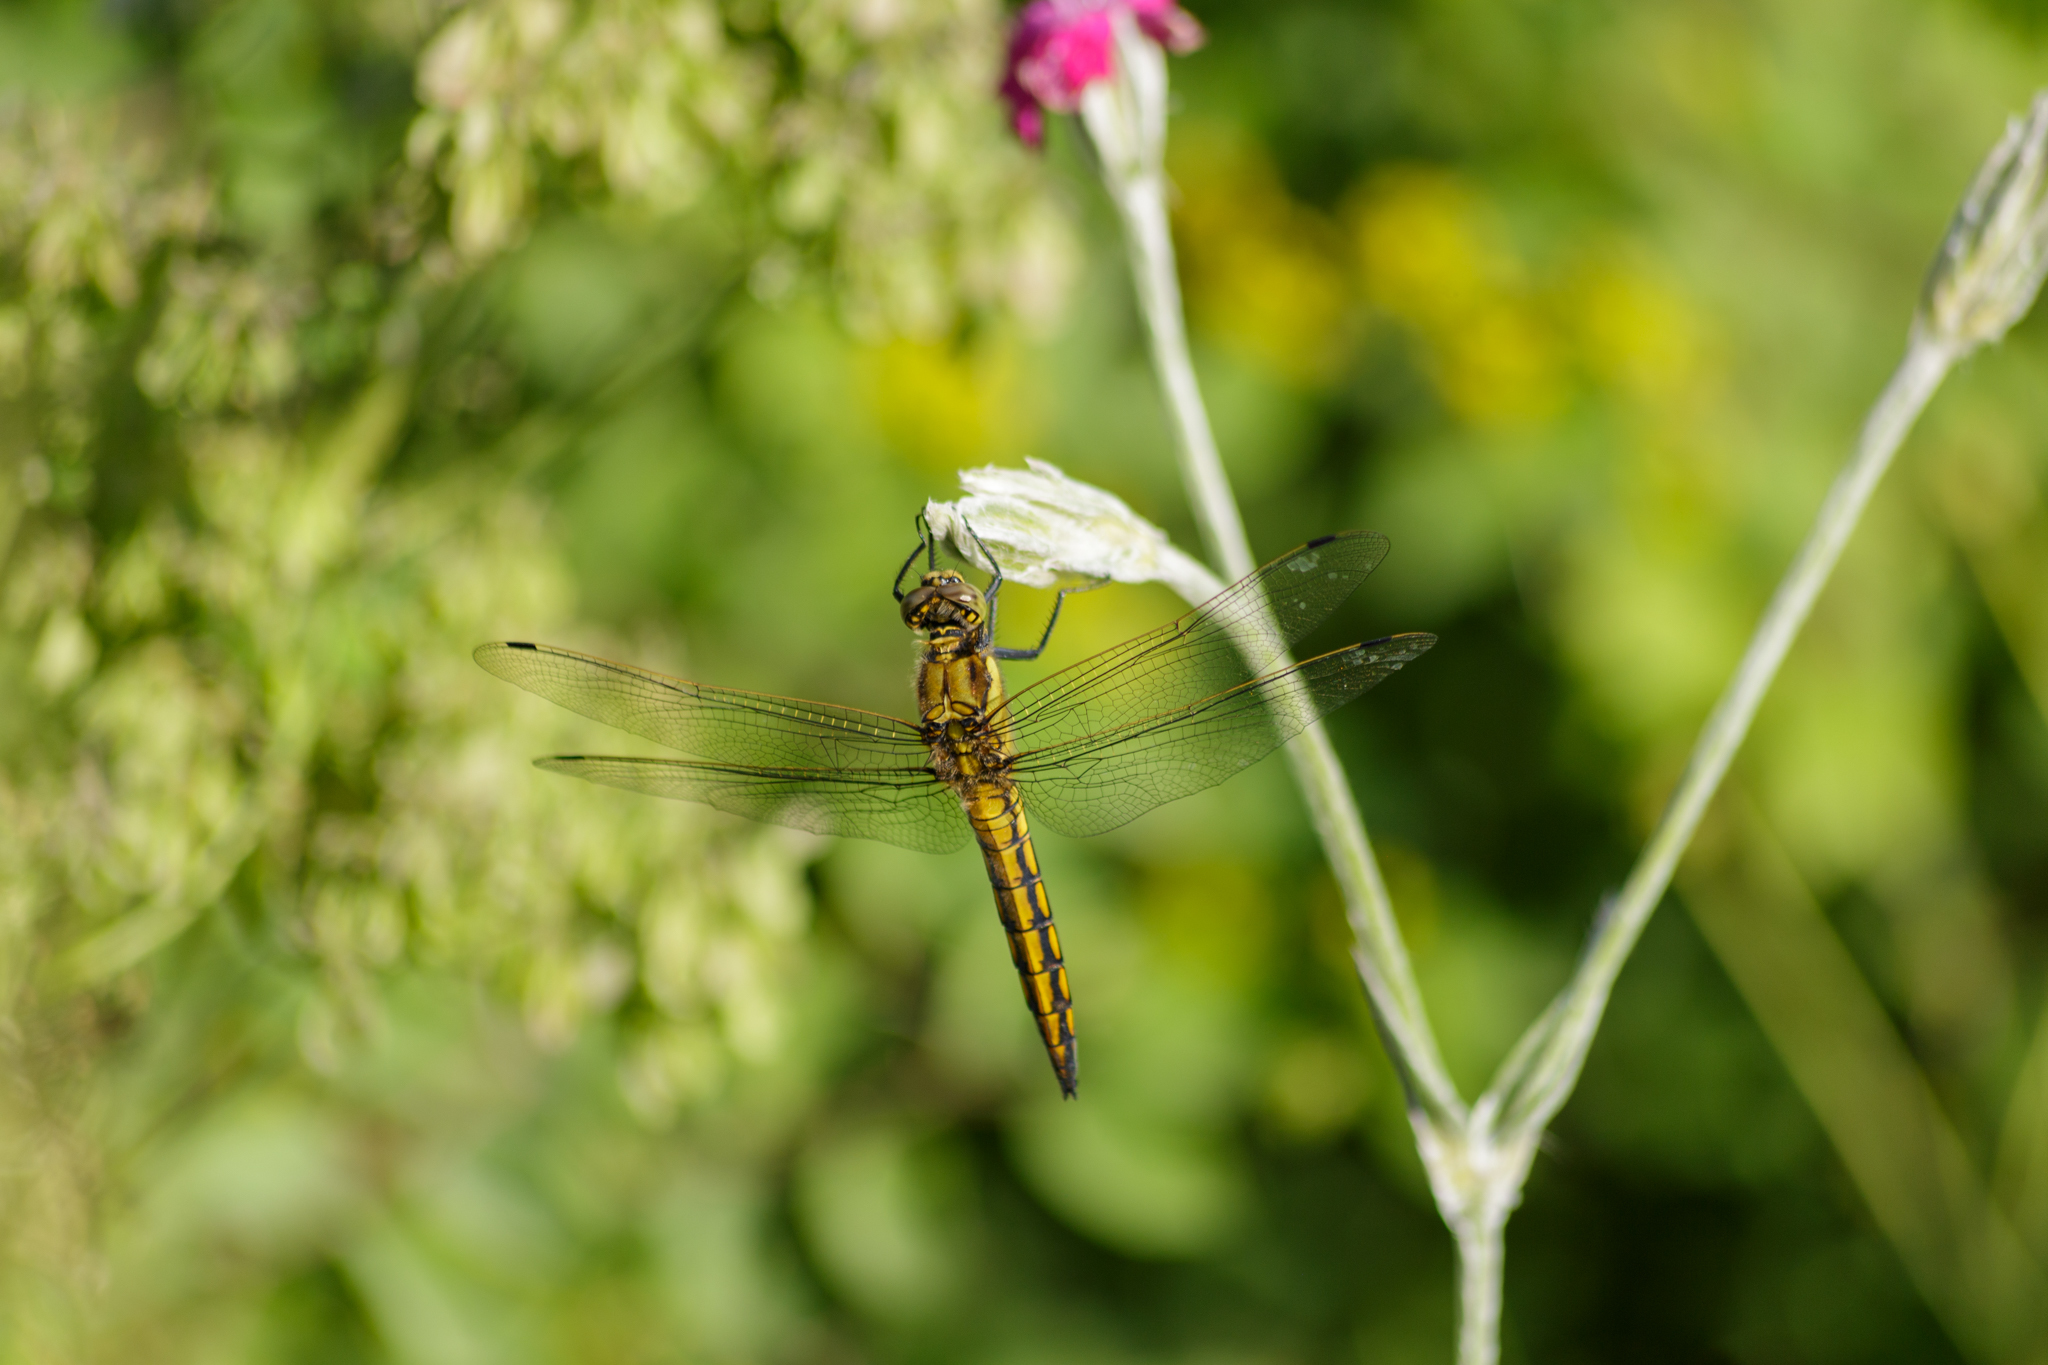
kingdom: Animalia
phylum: Arthropoda
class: Insecta
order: Odonata
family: Libellulidae
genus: Orthetrum
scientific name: Orthetrum cancellatum
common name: Black-tailed skimmer
